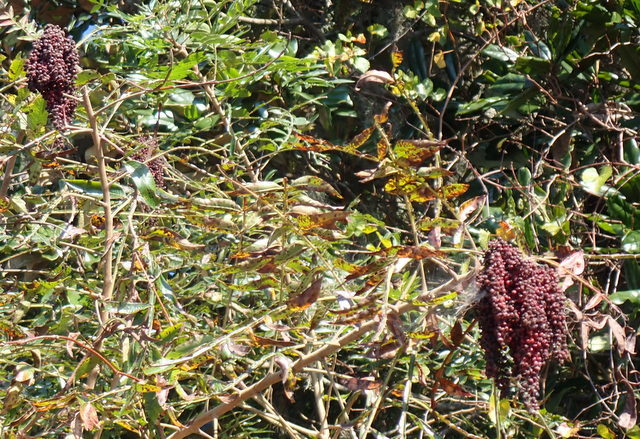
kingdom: Plantae
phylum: Tracheophyta
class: Magnoliopsida
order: Sapindales
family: Anacardiaceae
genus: Rhus
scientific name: Rhus copallina
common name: Shining sumac
